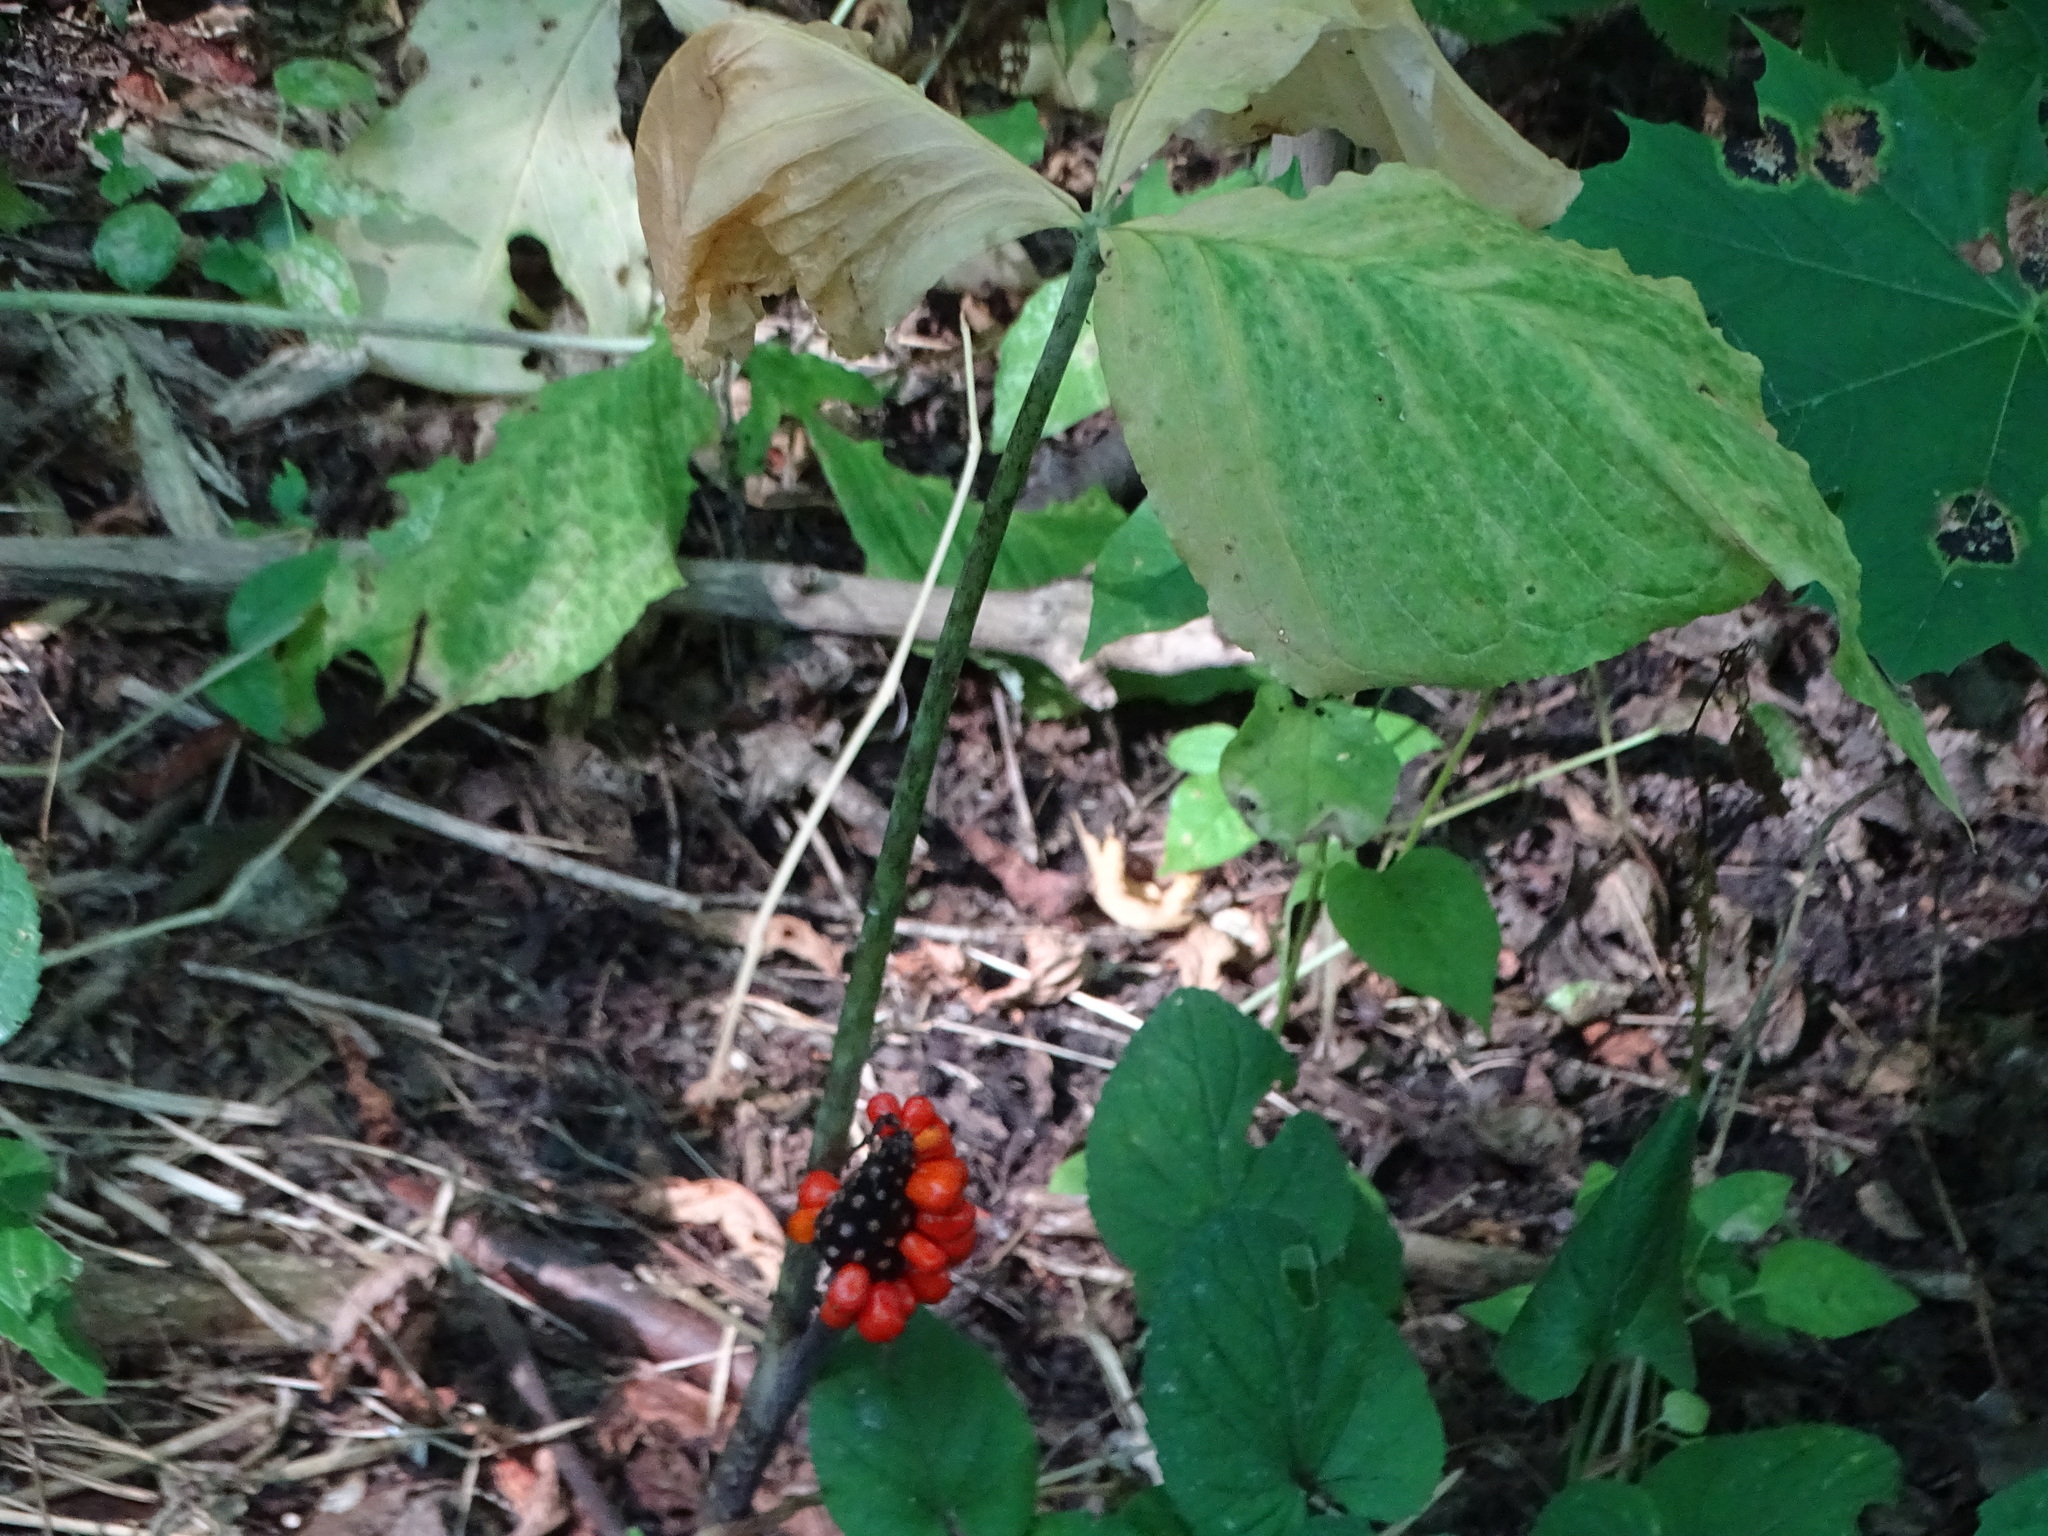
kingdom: Plantae
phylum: Tracheophyta
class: Liliopsida
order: Alismatales
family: Araceae
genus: Arisaema
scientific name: Arisaema triphyllum
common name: Jack-in-the-pulpit
